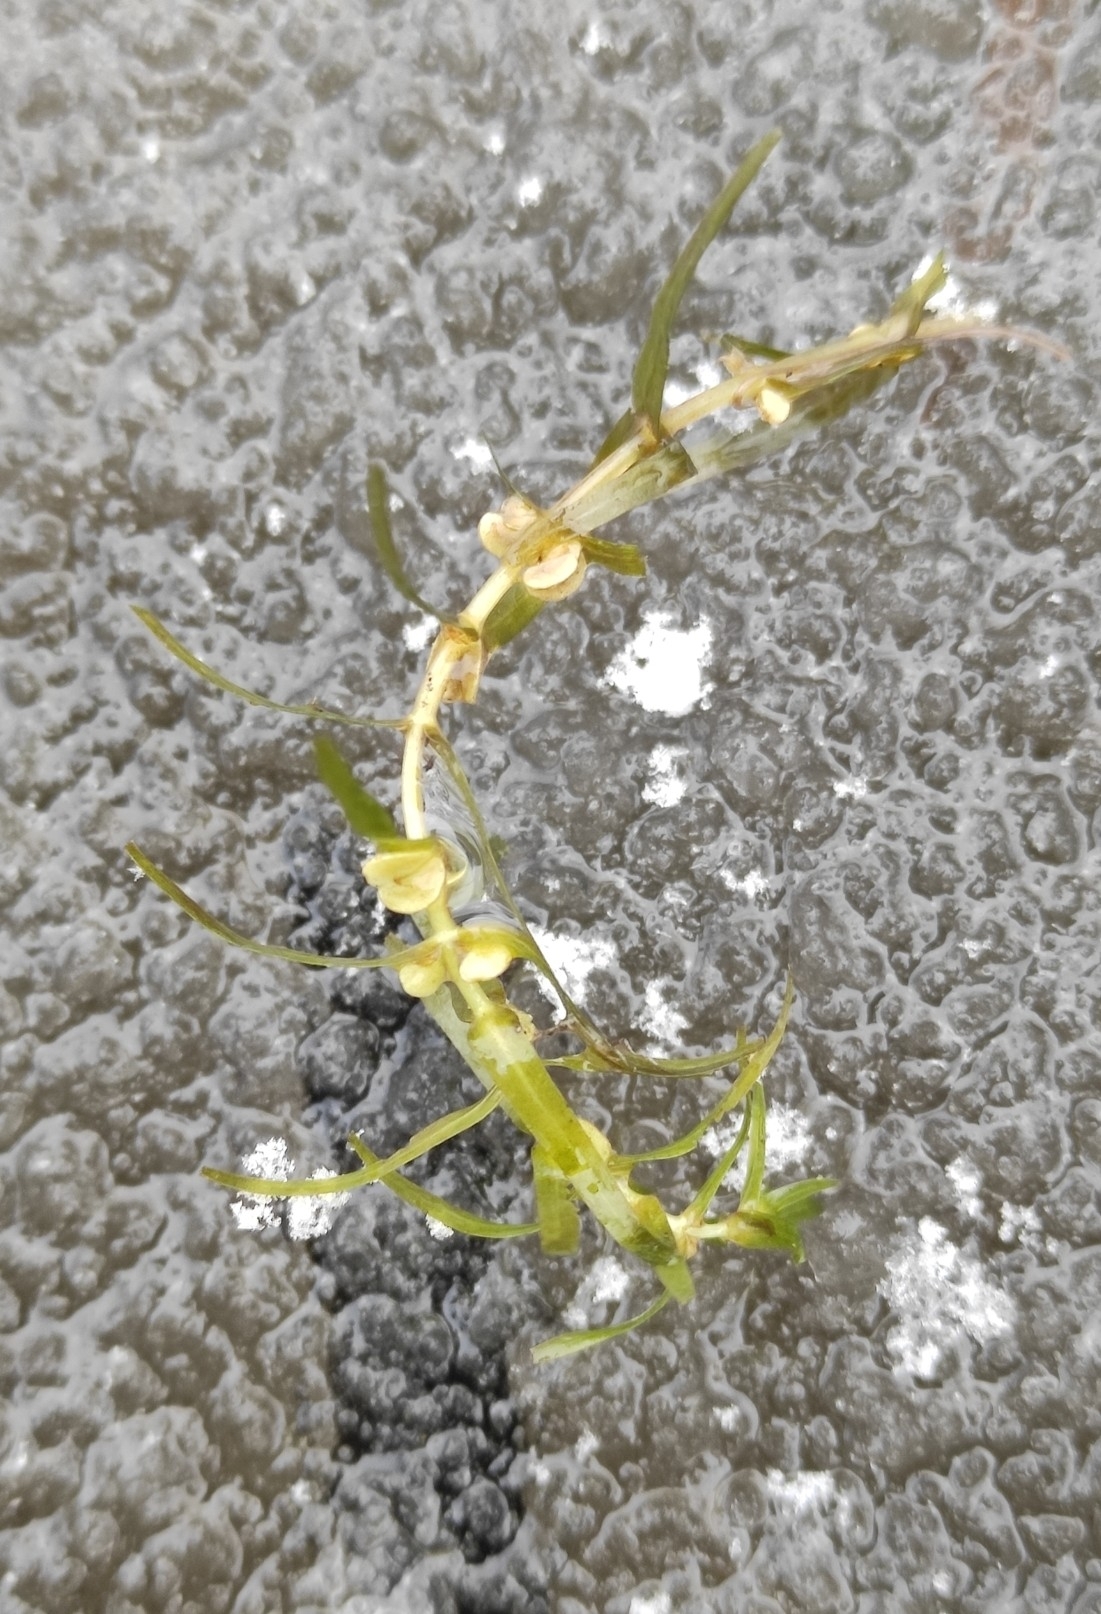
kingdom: Plantae
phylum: Tracheophyta
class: Magnoliopsida
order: Lamiales
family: Plantaginaceae
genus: Callitriche
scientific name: Callitriche hermaphroditica
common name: Autumnal water-starwort
